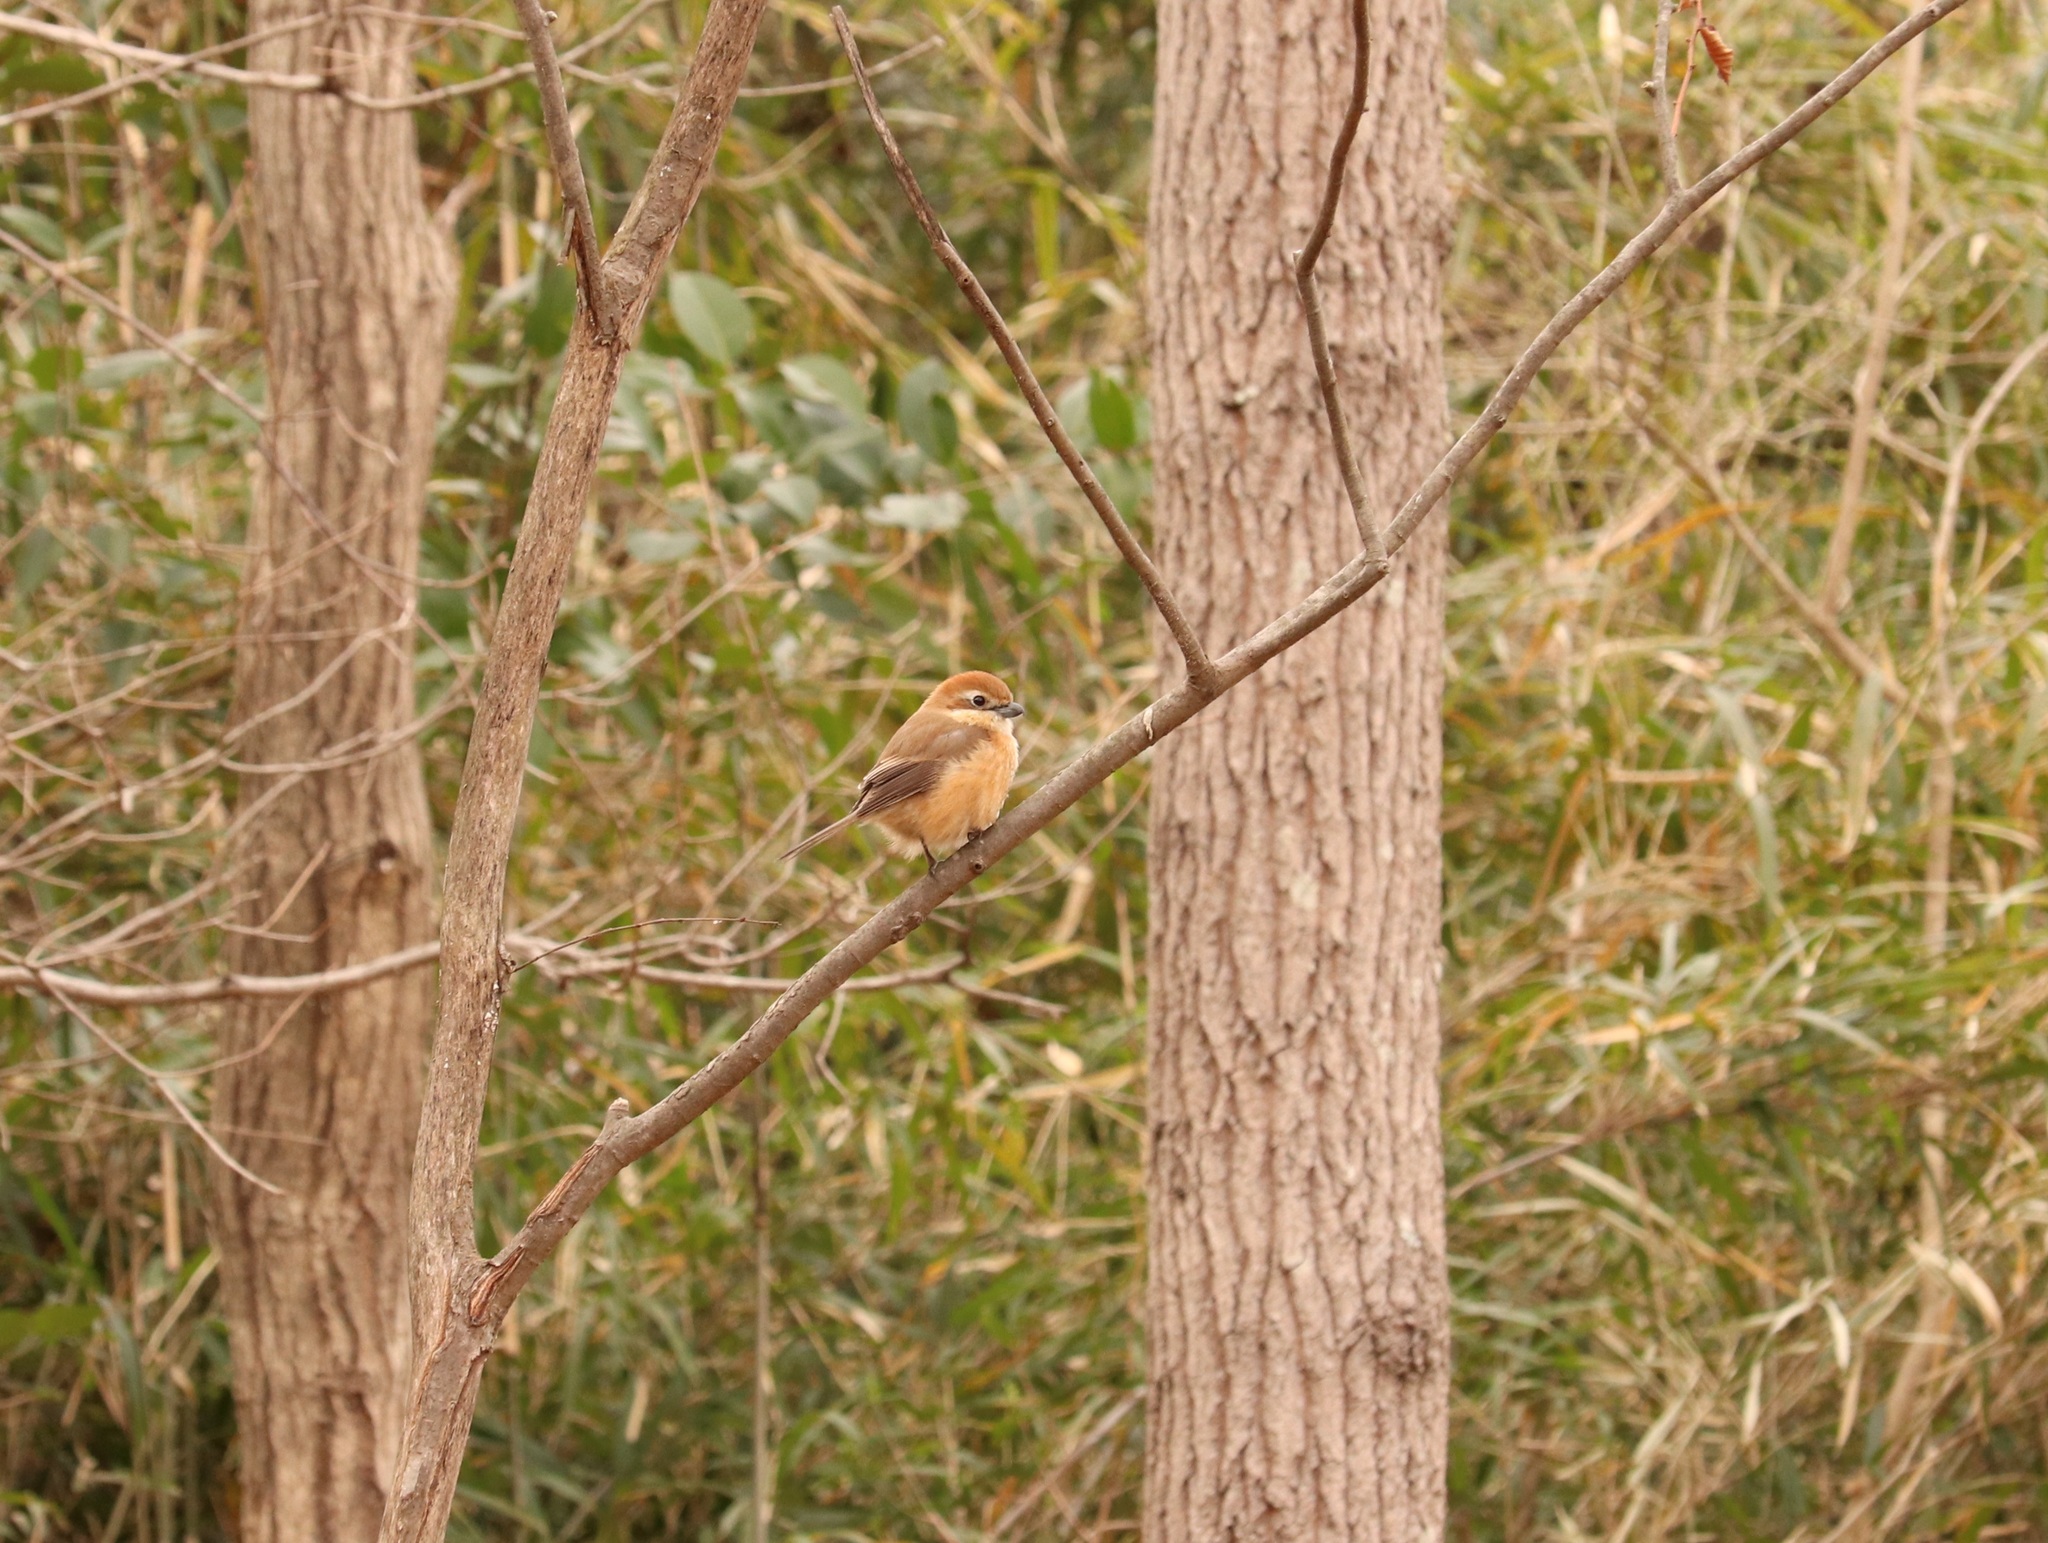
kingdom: Animalia
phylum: Chordata
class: Aves
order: Passeriformes
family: Laniidae
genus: Lanius
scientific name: Lanius bucephalus
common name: Bull-headed shrike
